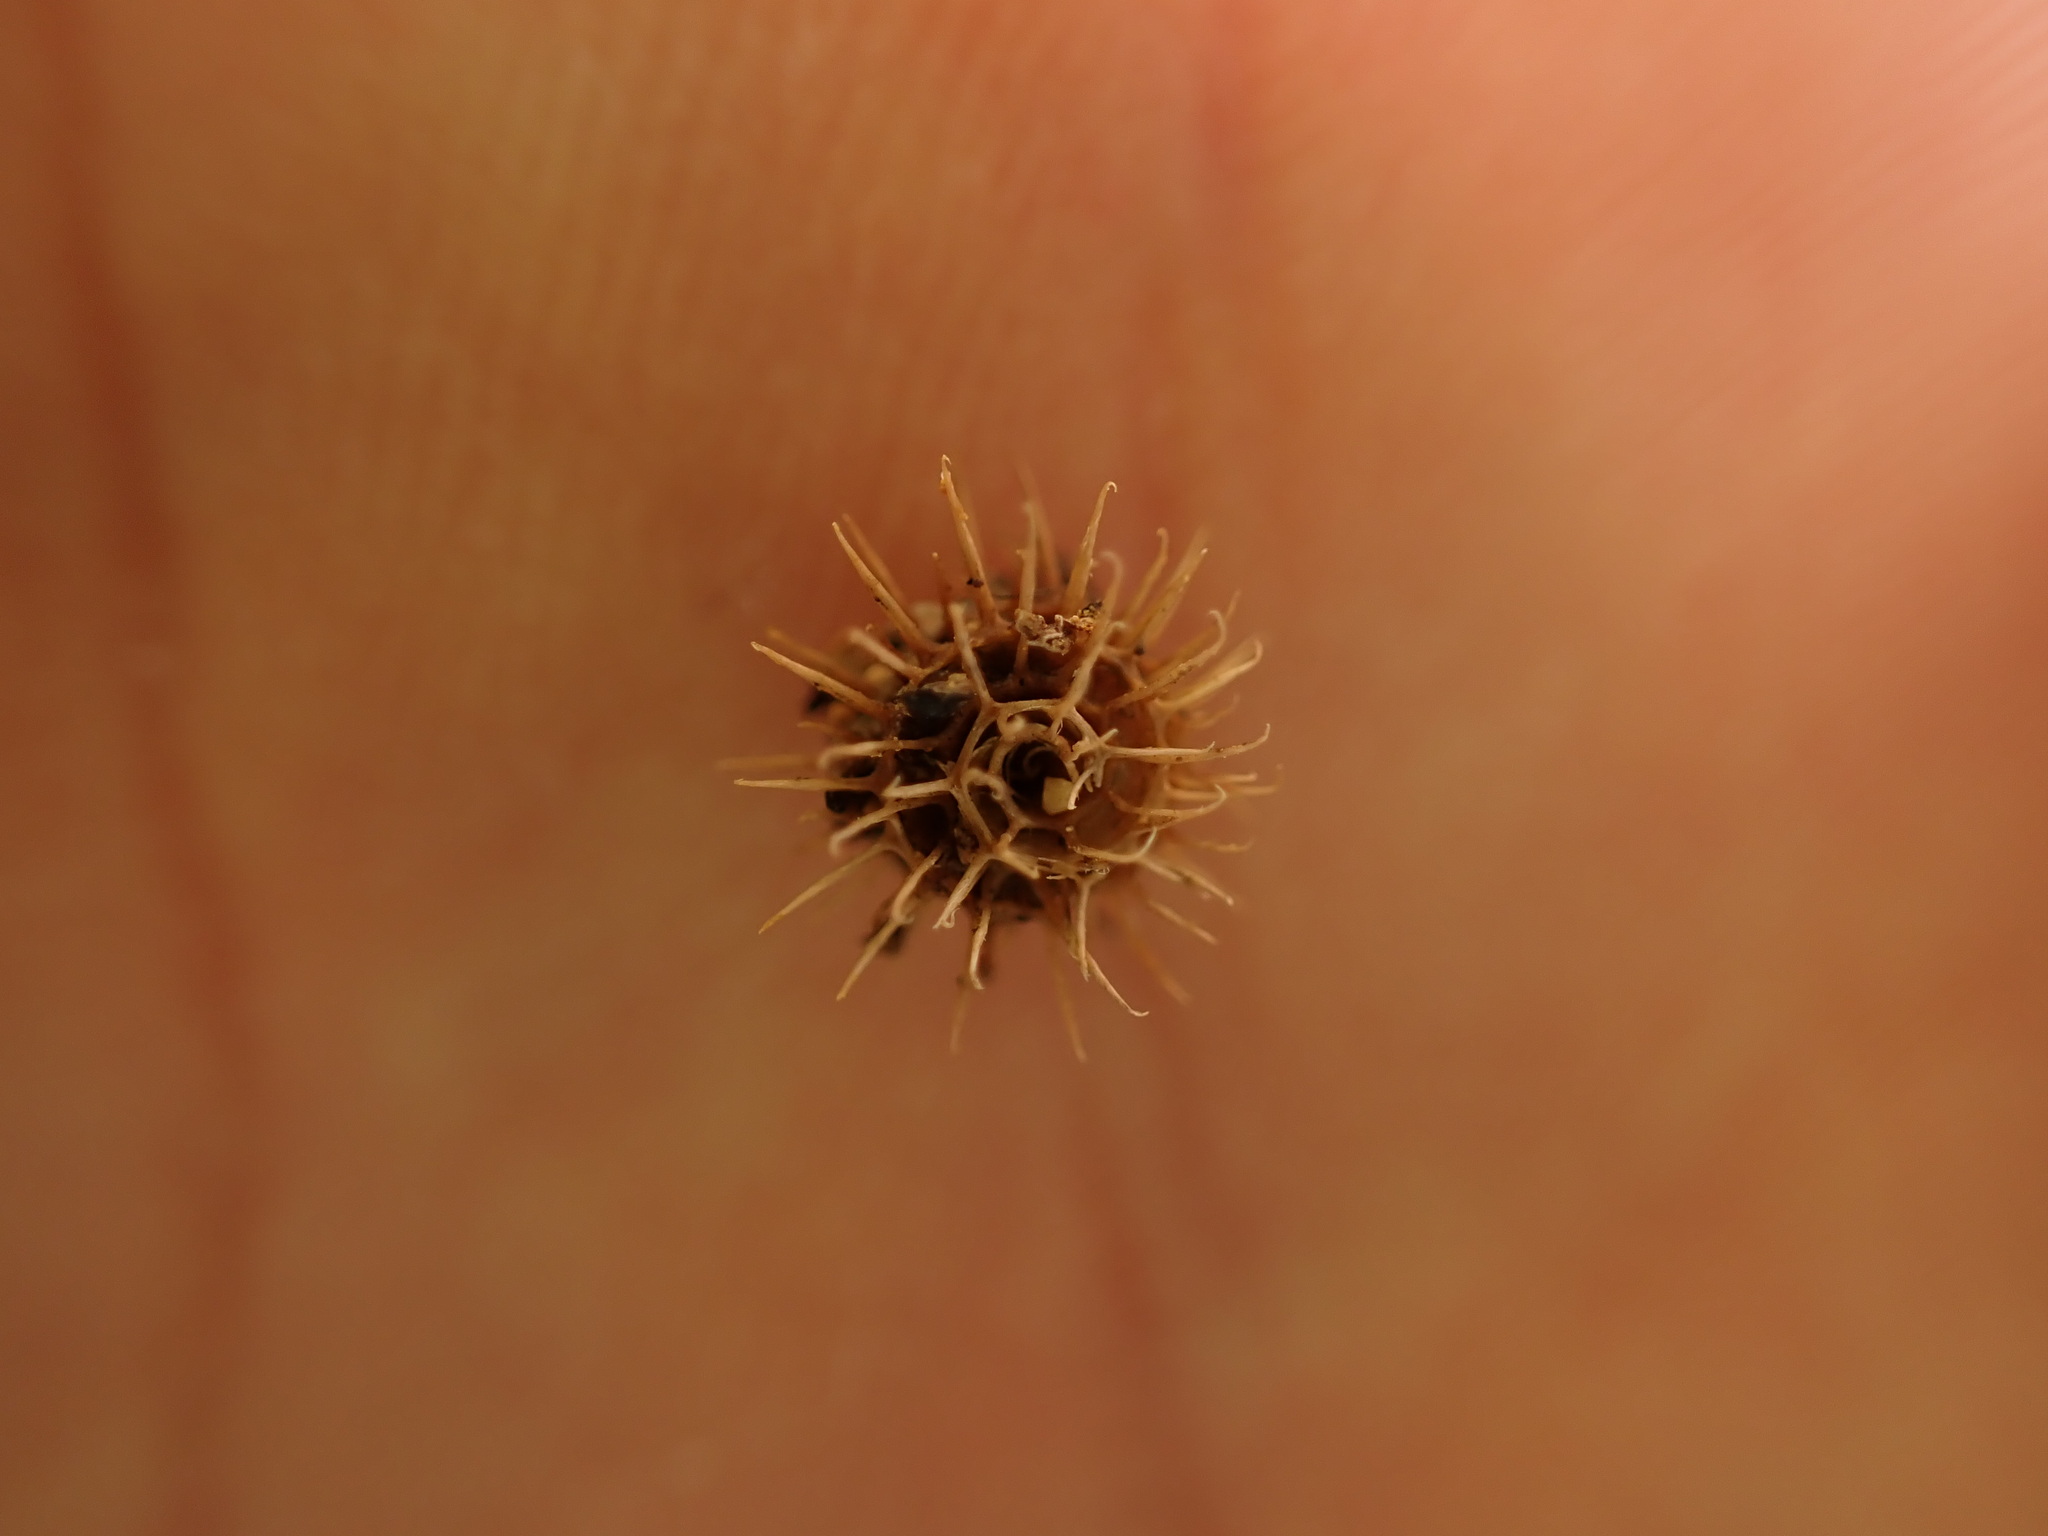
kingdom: Plantae
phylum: Tracheophyta
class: Magnoliopsida
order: Fabales
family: Fabaceae
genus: Medicago
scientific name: Medicago minima
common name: Little bur-clover
